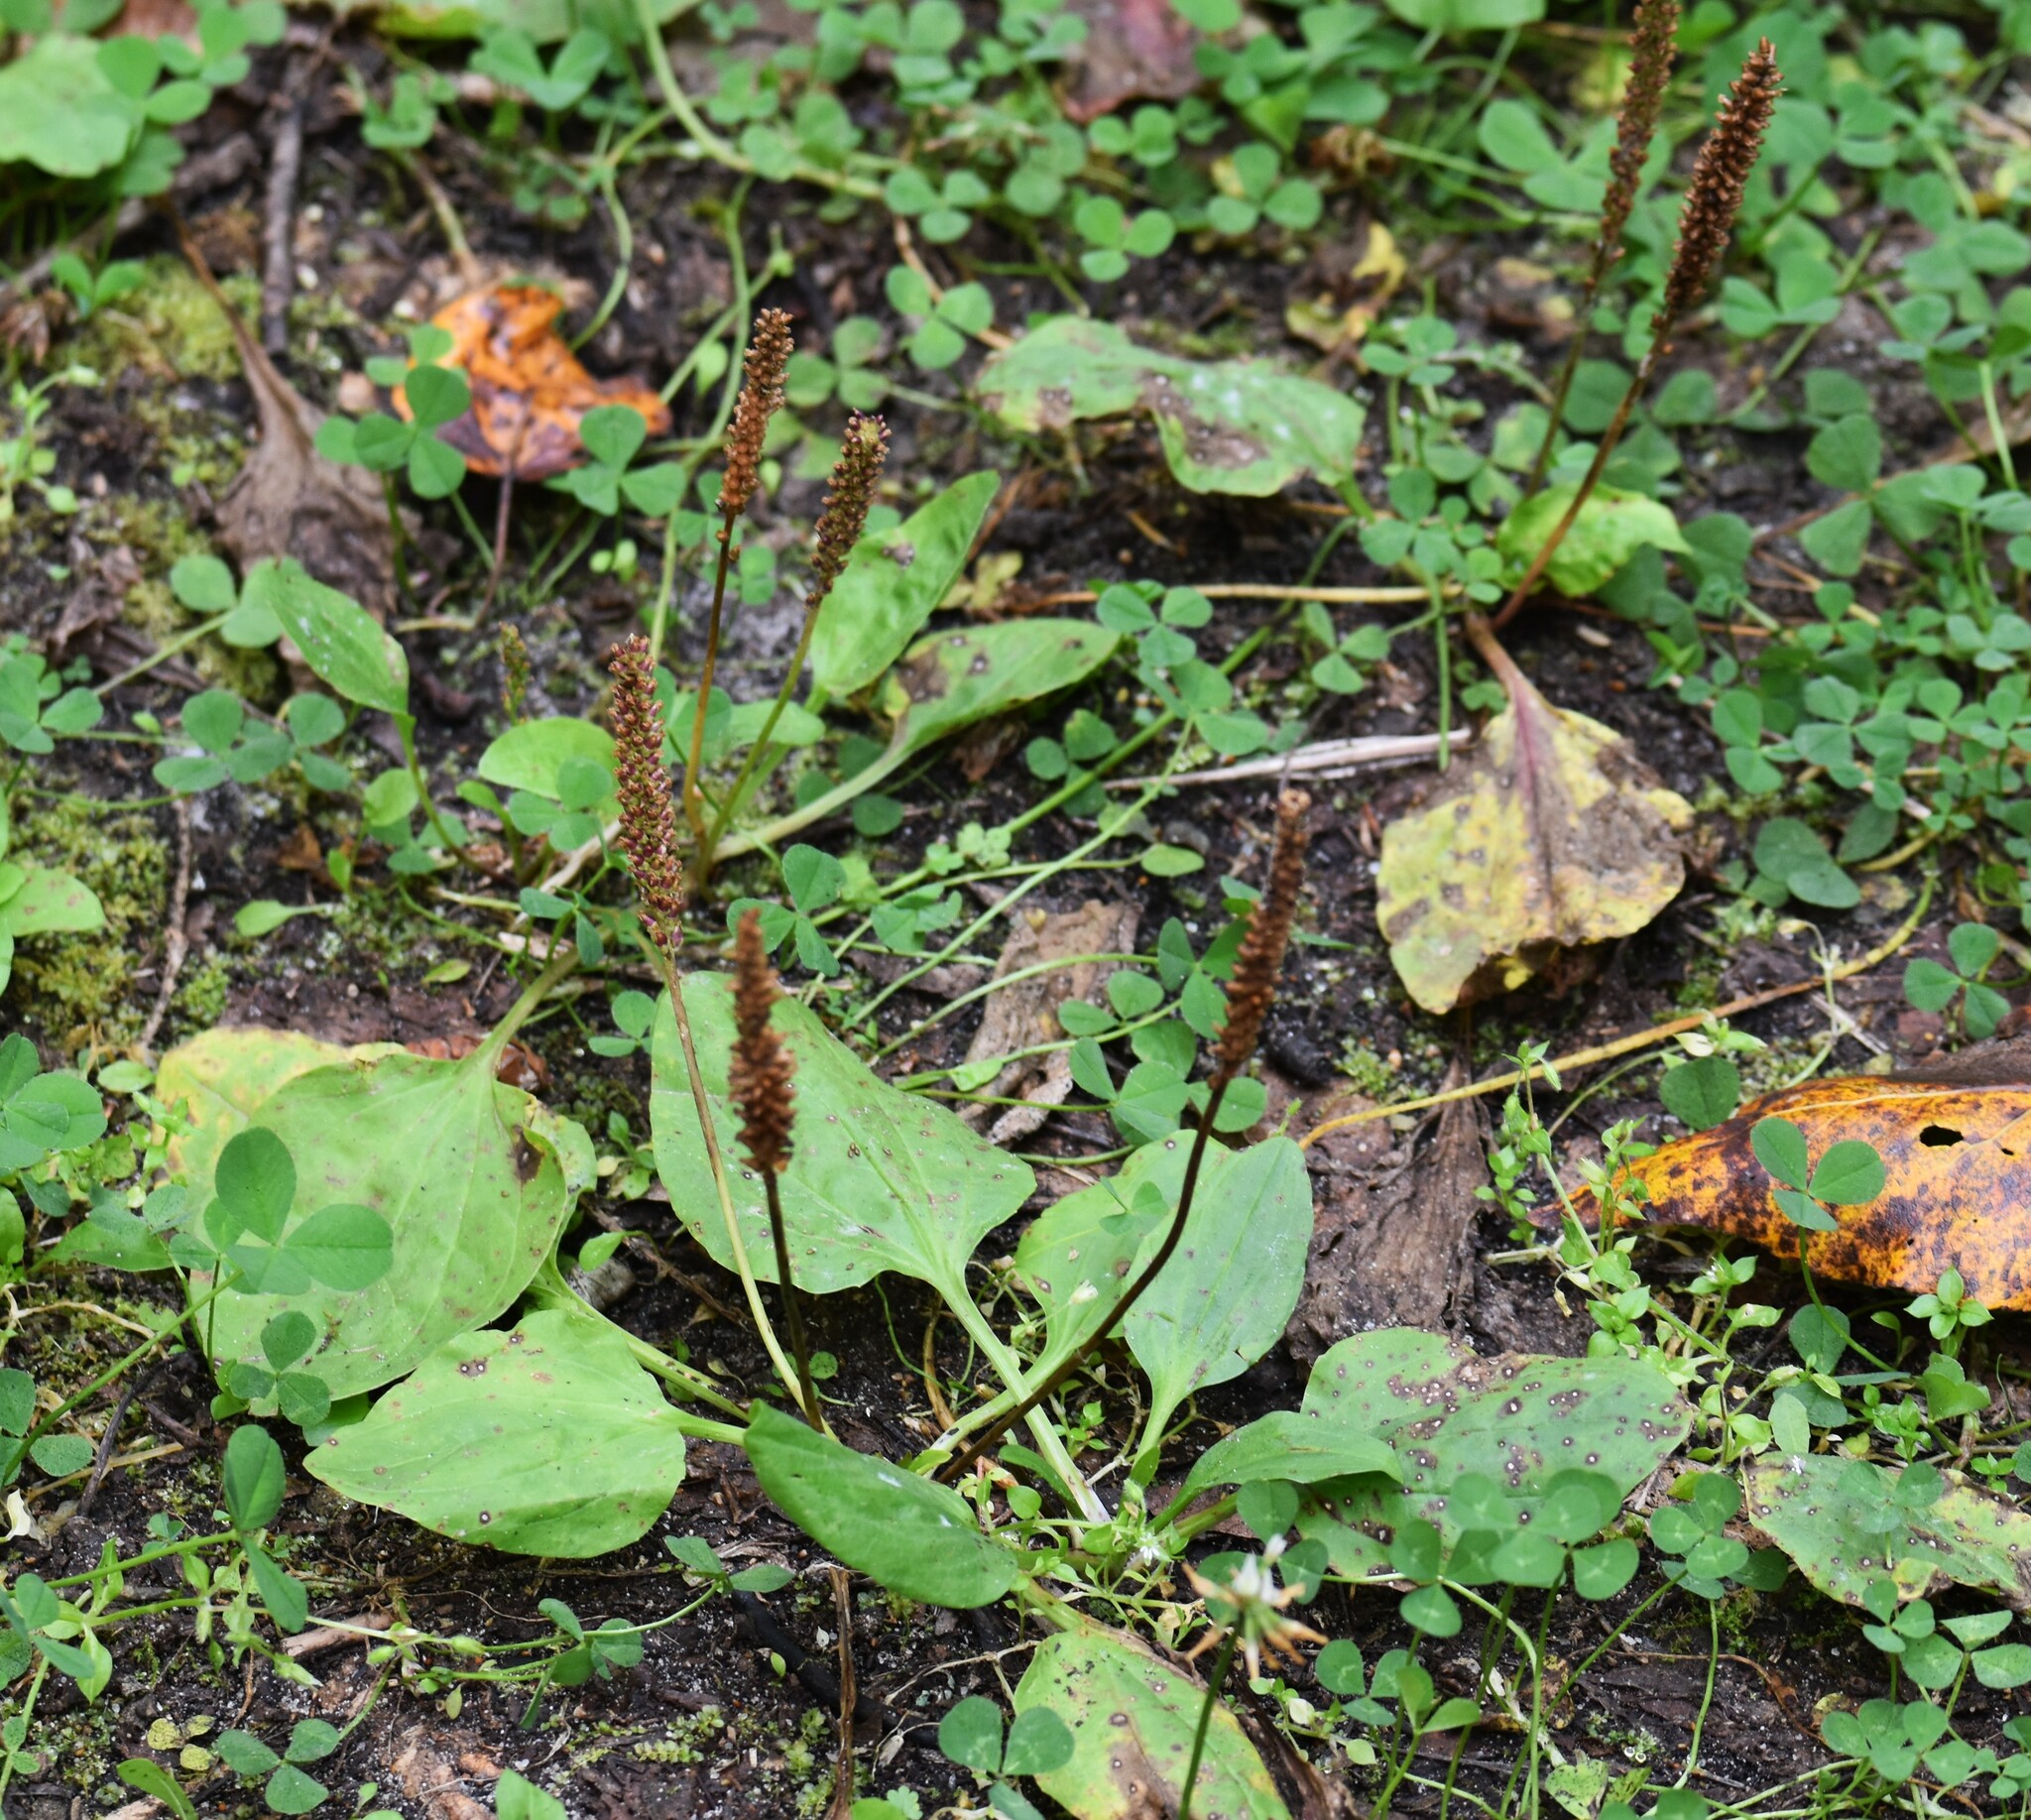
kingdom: Plantae
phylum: Tracheophyta
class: Magnoliopsida
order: Lamiales
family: Plantaginaceae
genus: Plantago
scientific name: Plantago major
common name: Common plantain
